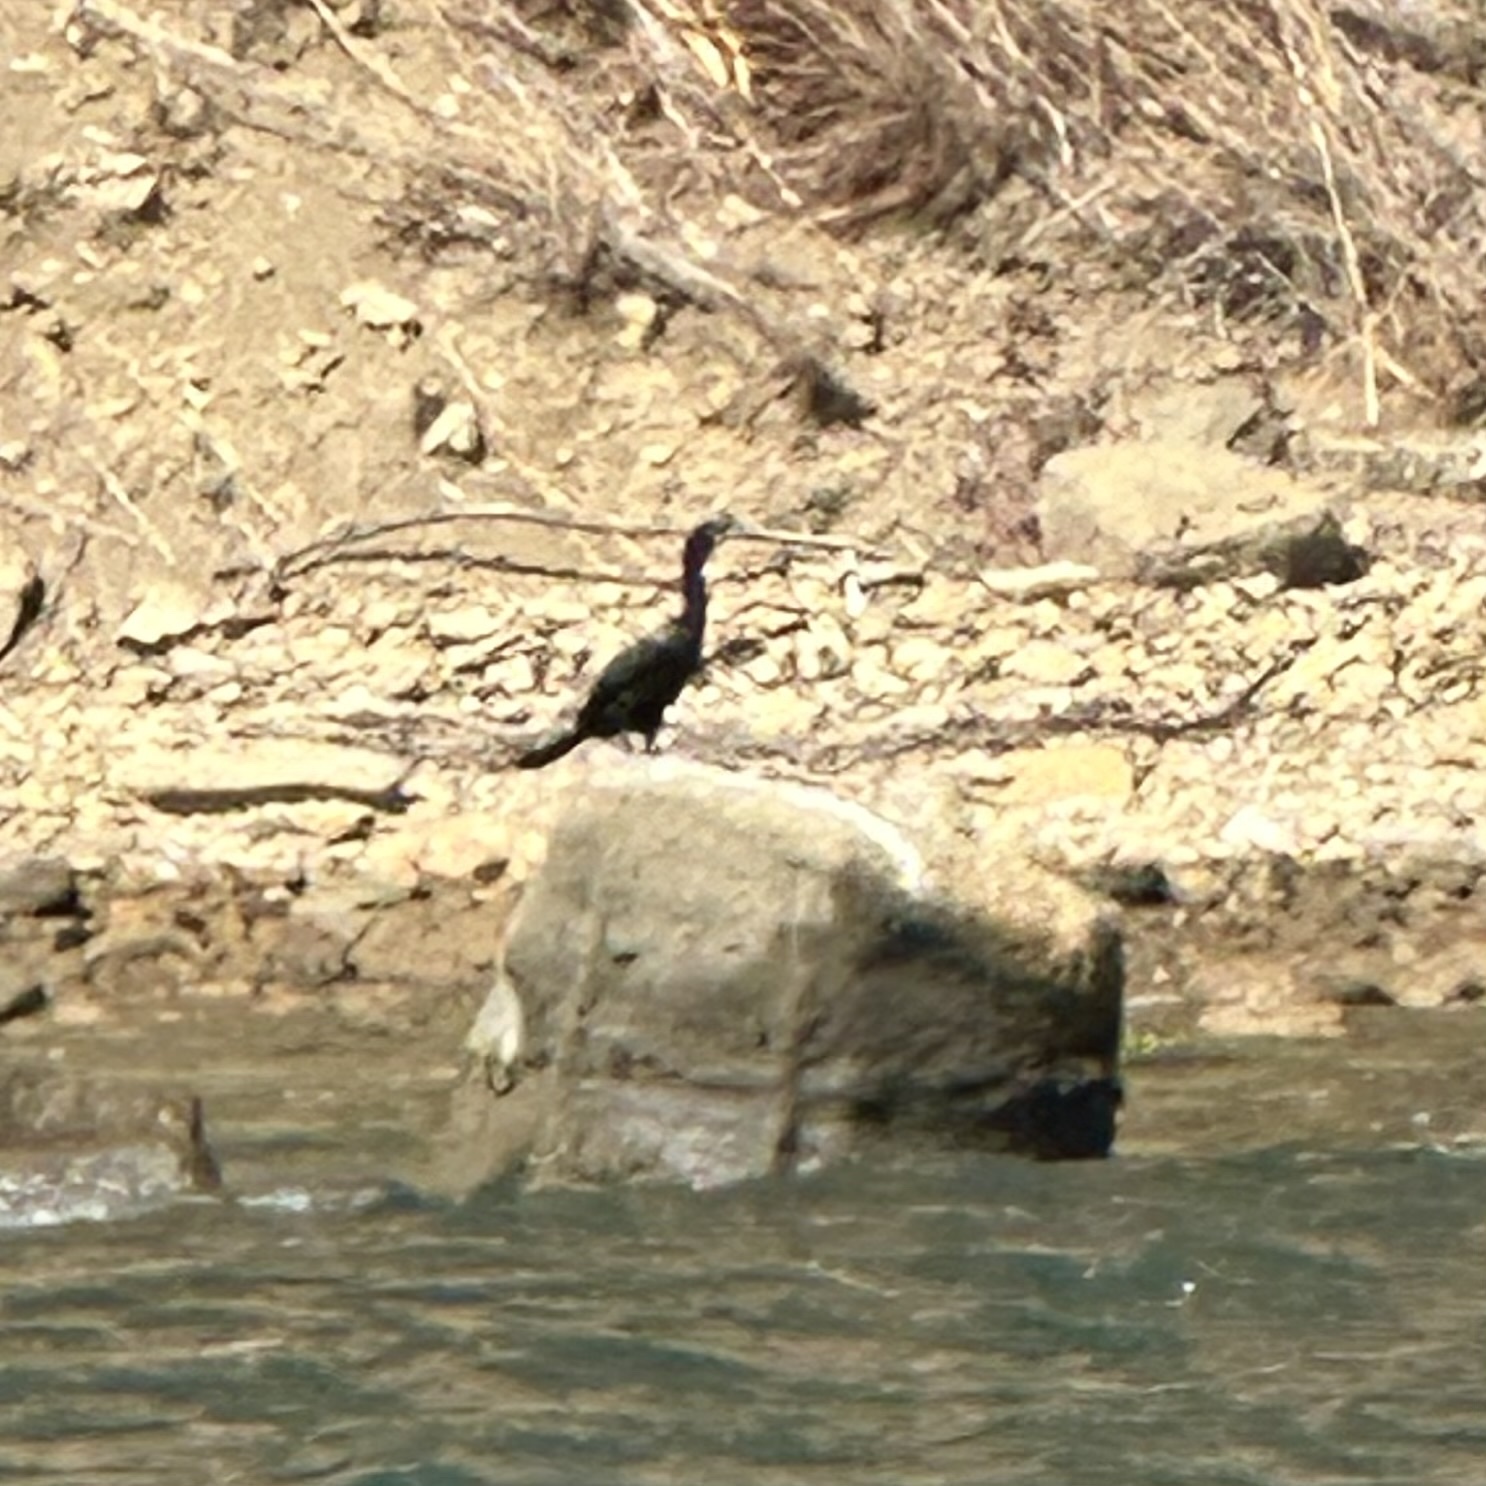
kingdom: Animalia
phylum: Chordata
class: Aves
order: Suliformes
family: Phalacrocoracidae
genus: Phalacrocorax
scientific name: Phalacrocorax brasilianus
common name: Neotropic cormorant
